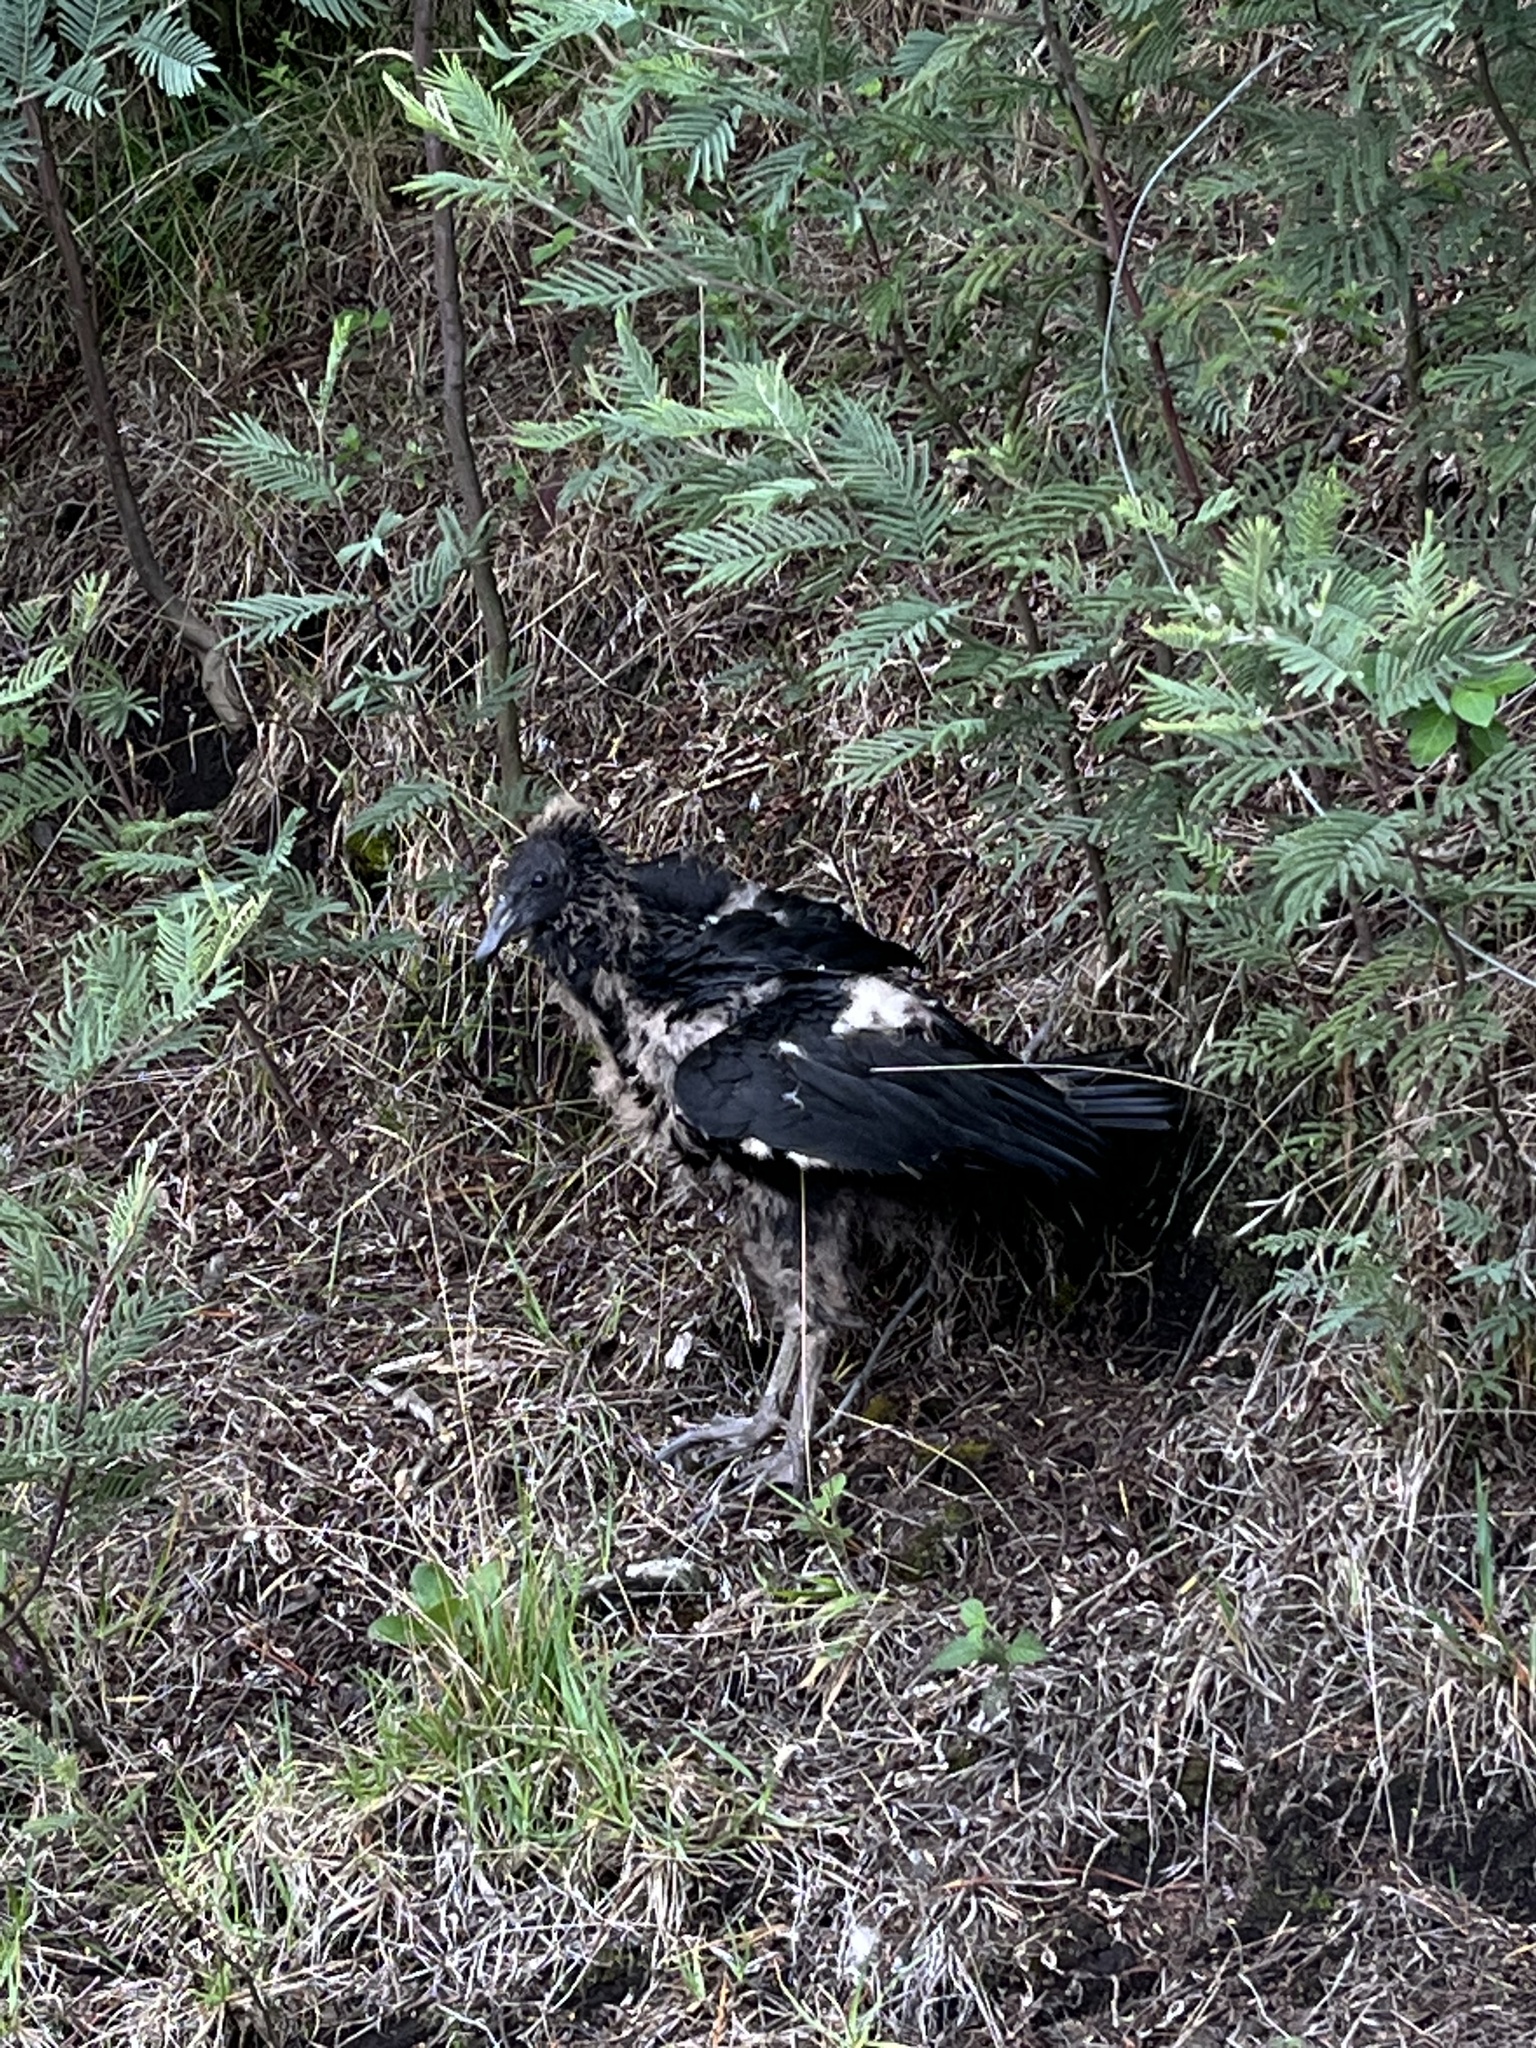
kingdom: Animalia
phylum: Chordata
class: Aves
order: Accipitriformes
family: Cathartidae
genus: Coragyps
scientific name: Coragyps atratus
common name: Black vulture
